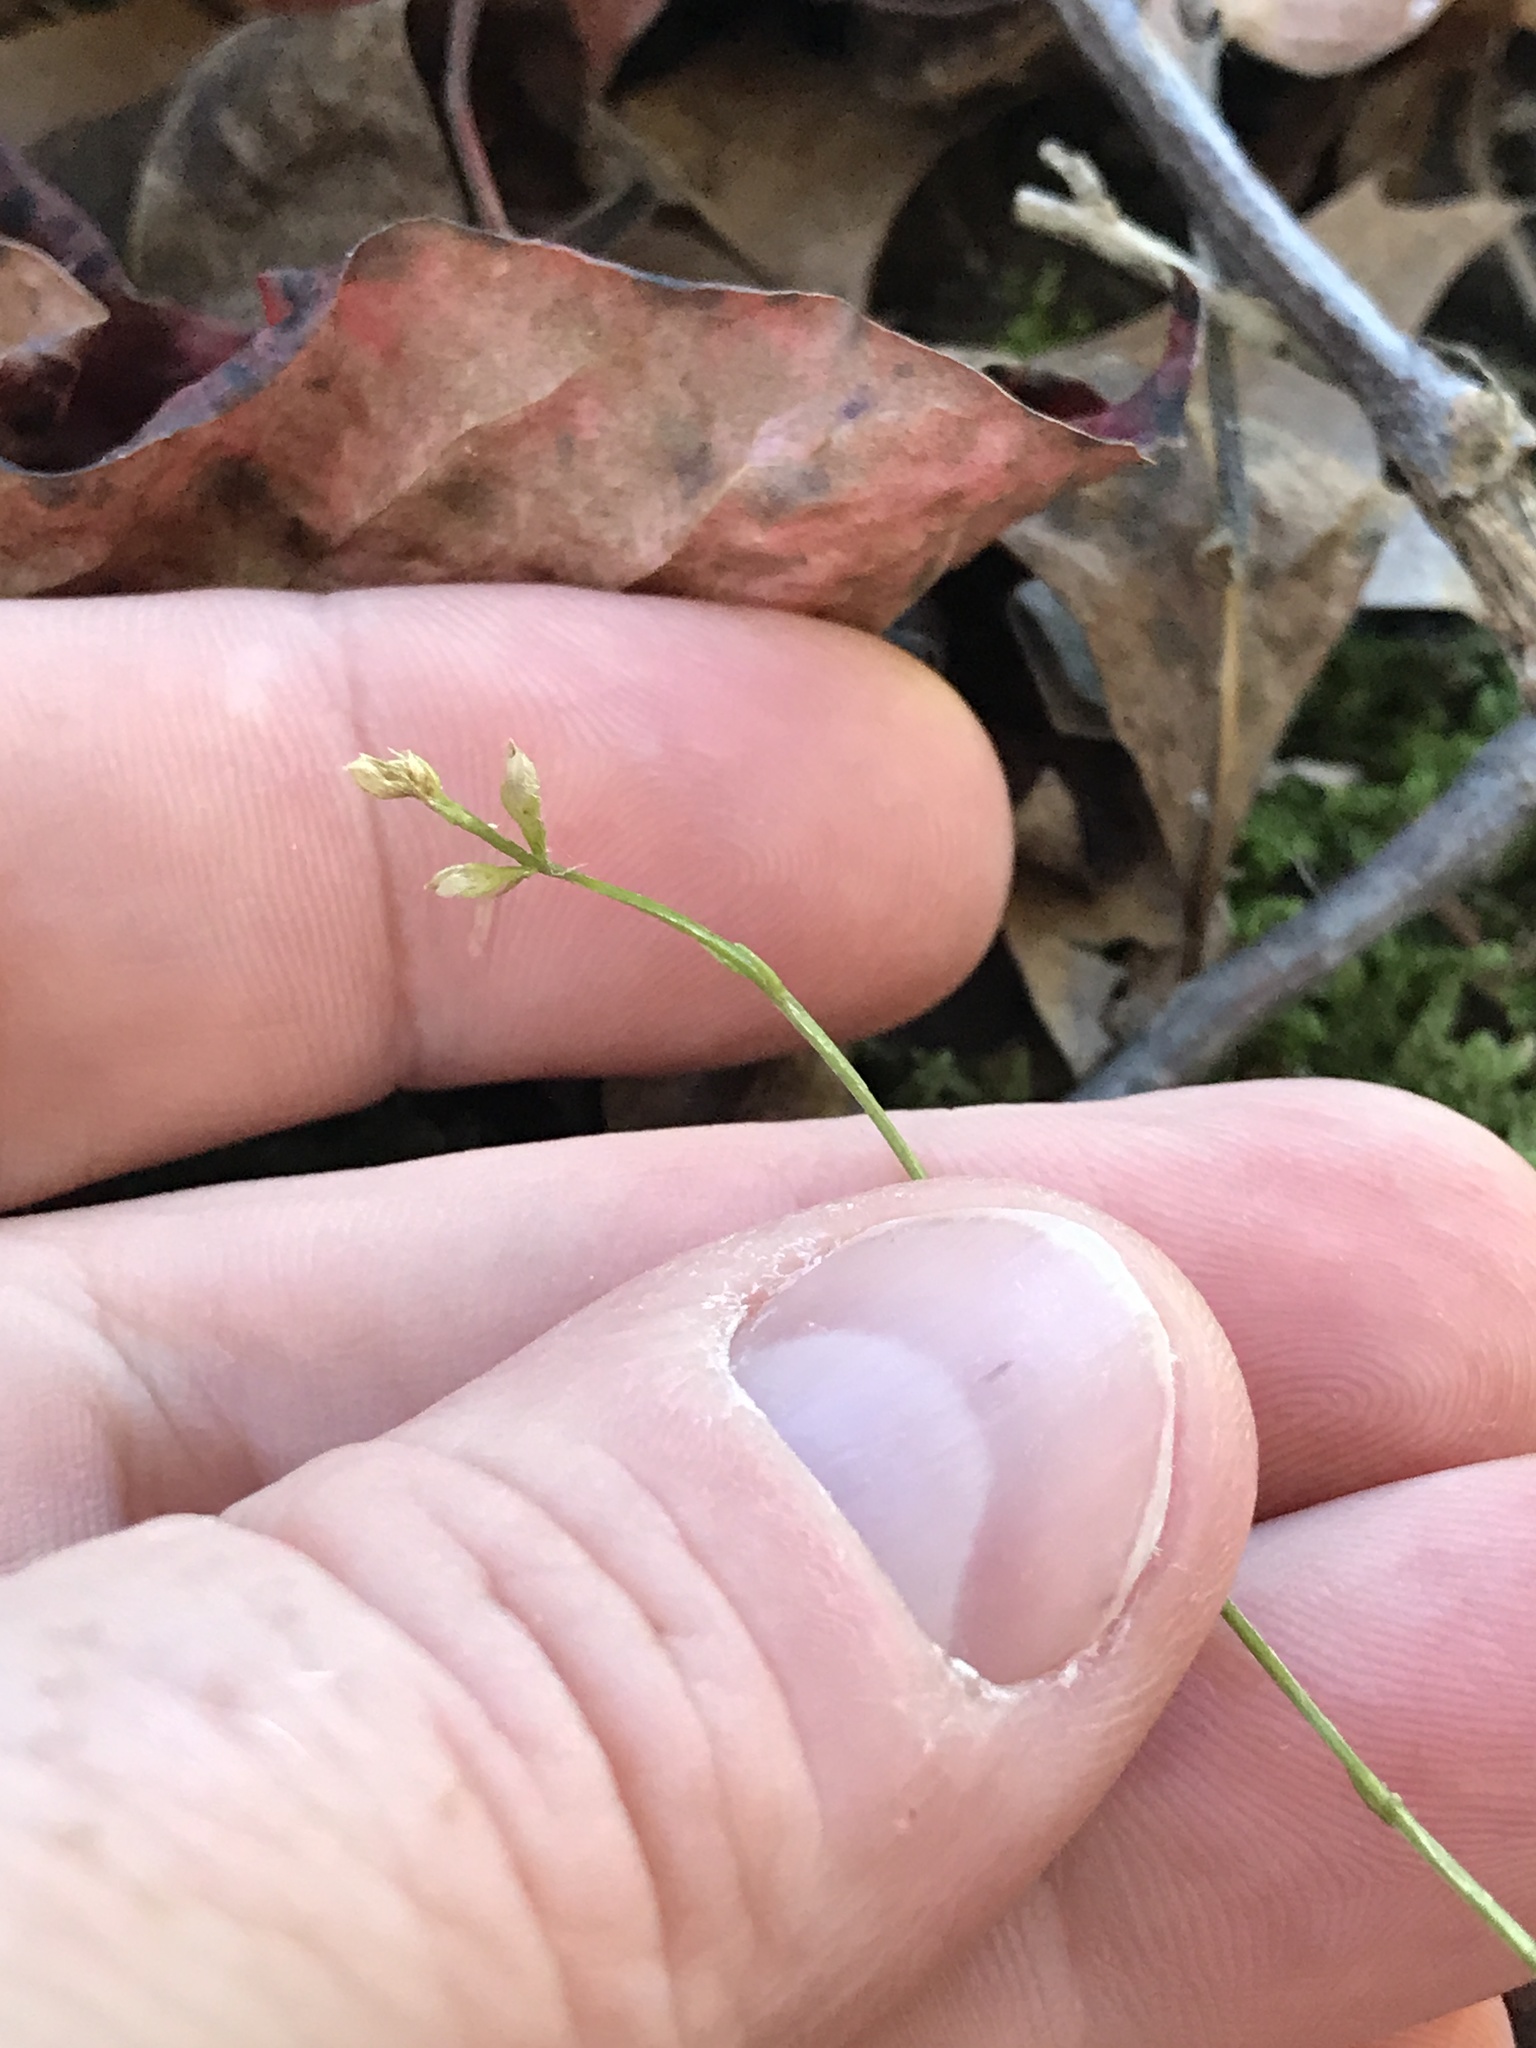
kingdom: Plantae
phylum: Tracheophyta
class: Magnoliopsida
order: Gentianales
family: Gentianaceae
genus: Bartonia
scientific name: Bartonia virginica
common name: Yellow bartonia
